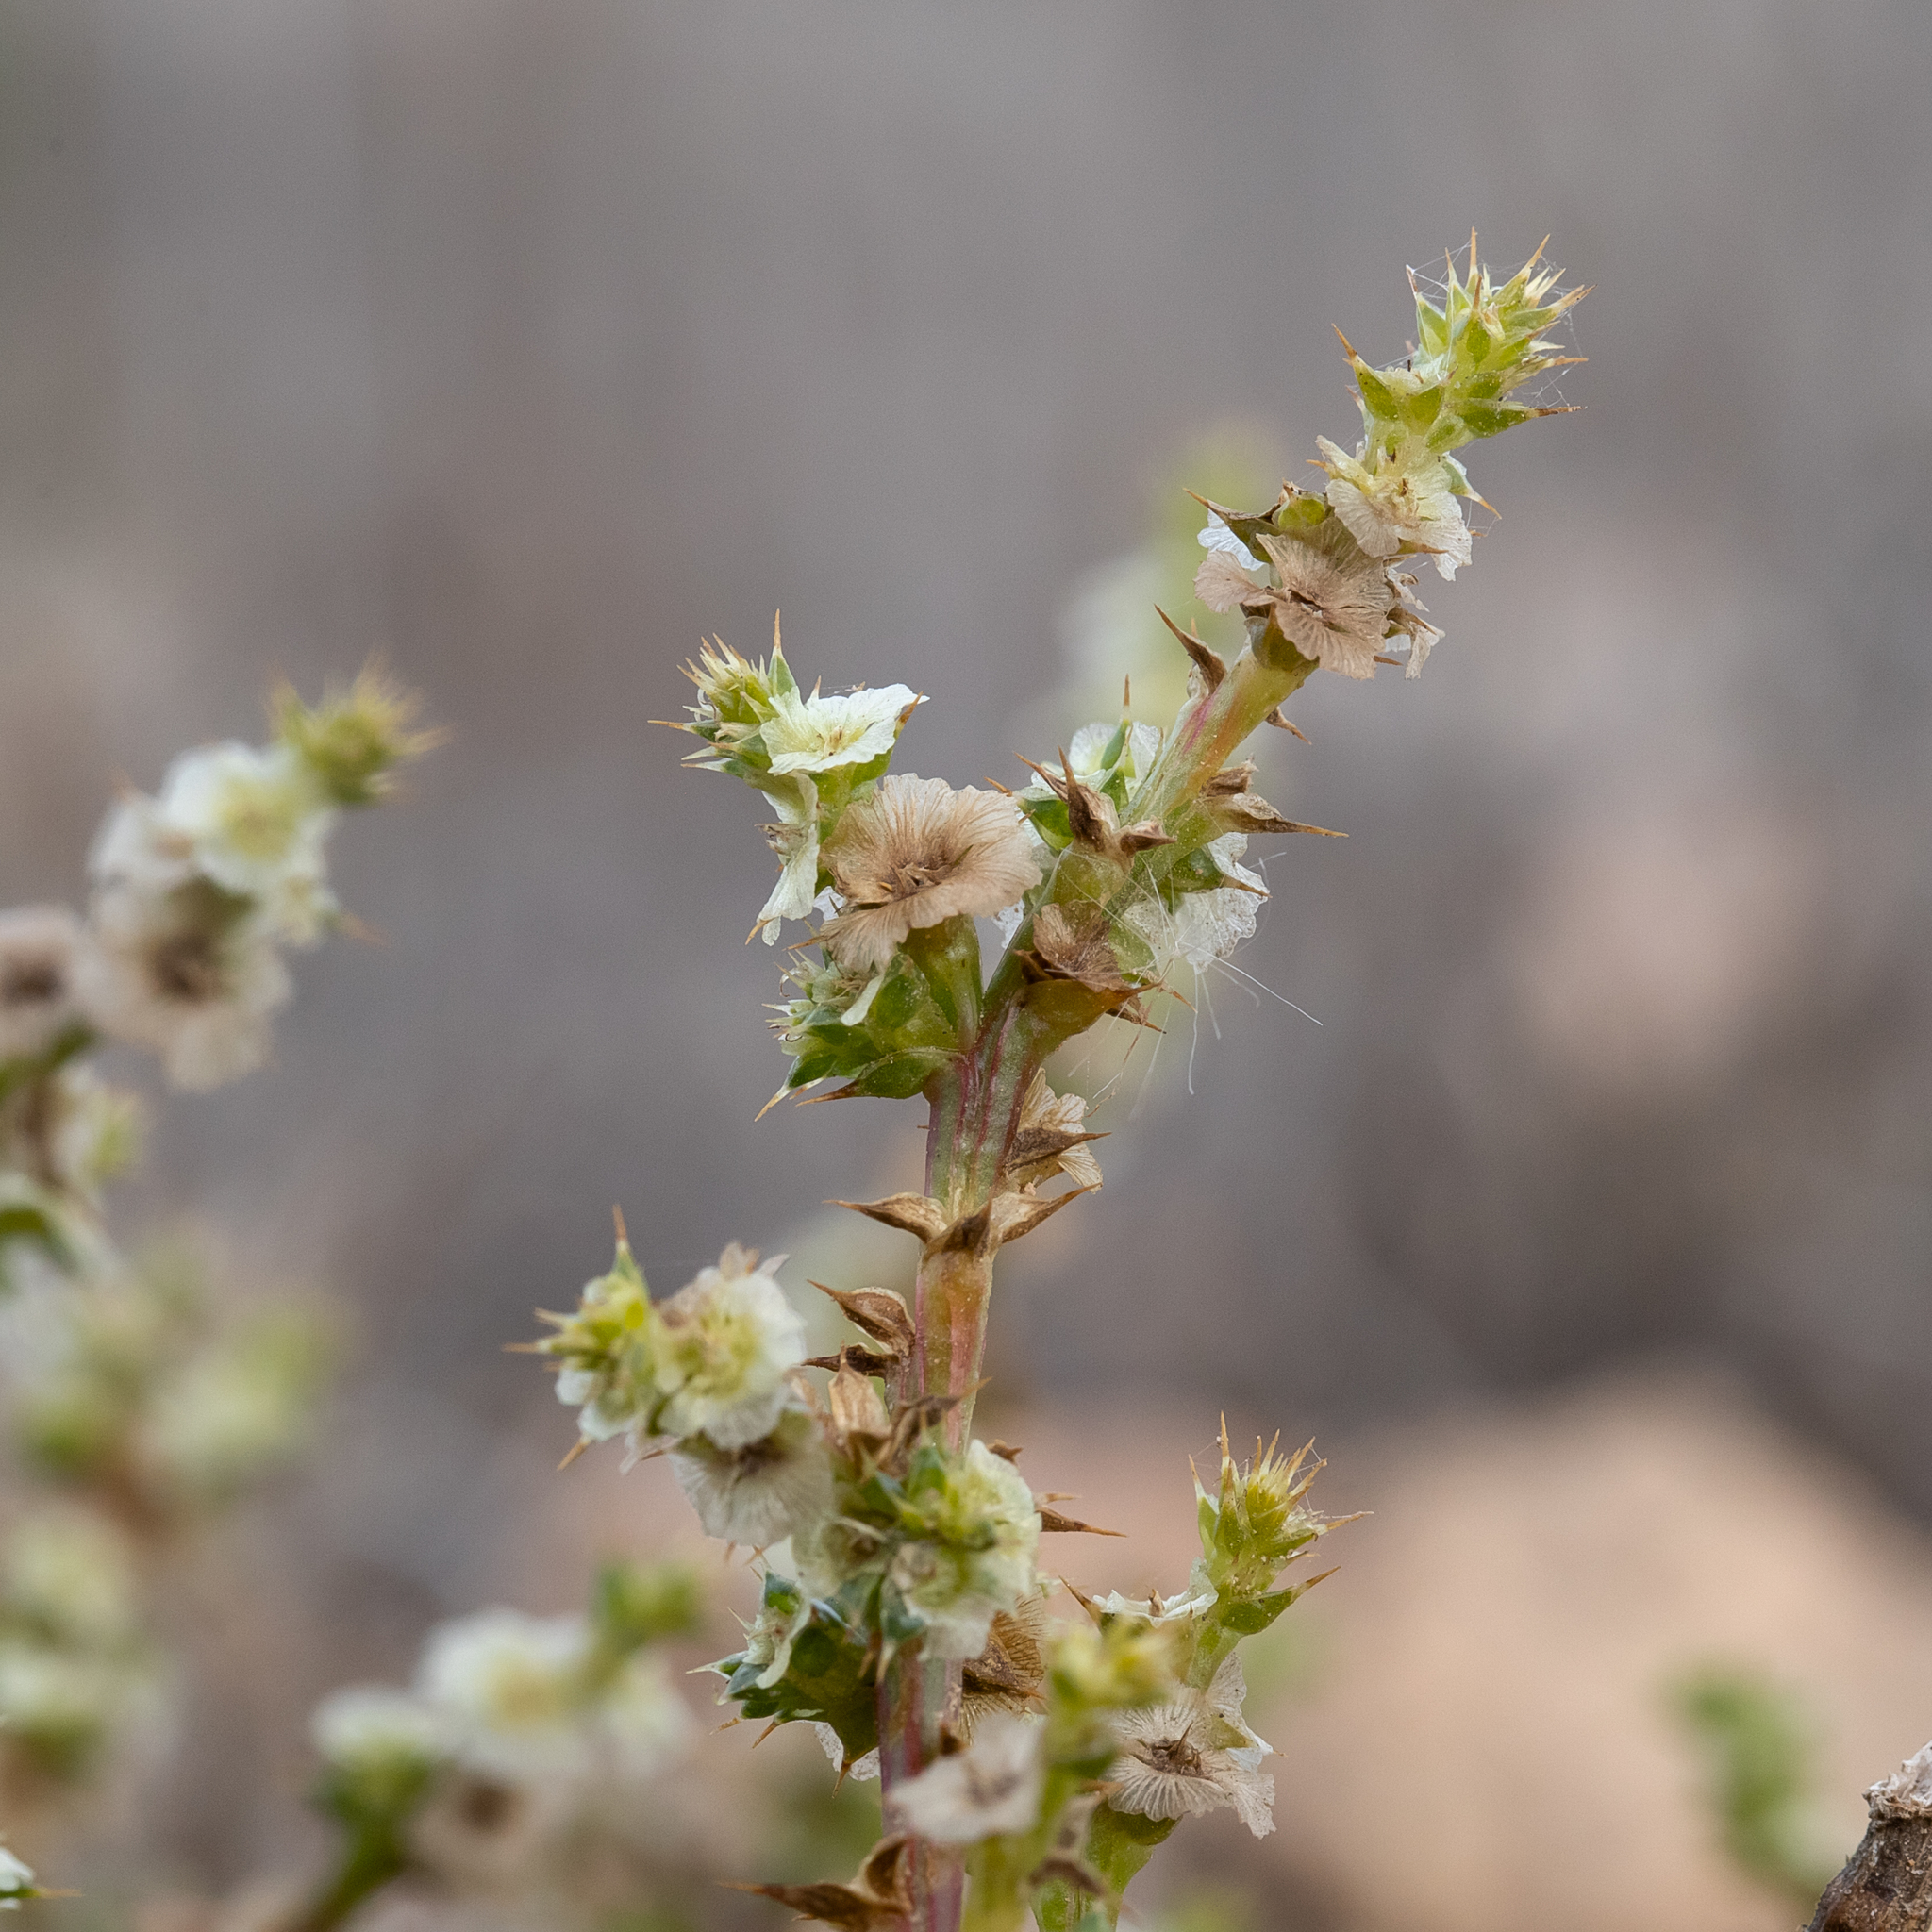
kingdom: Plantae
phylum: Tracheophyta
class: Magnoliopsida
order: Caryophyllales
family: Amaranthaceae
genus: Salsola
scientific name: Salsola australis
